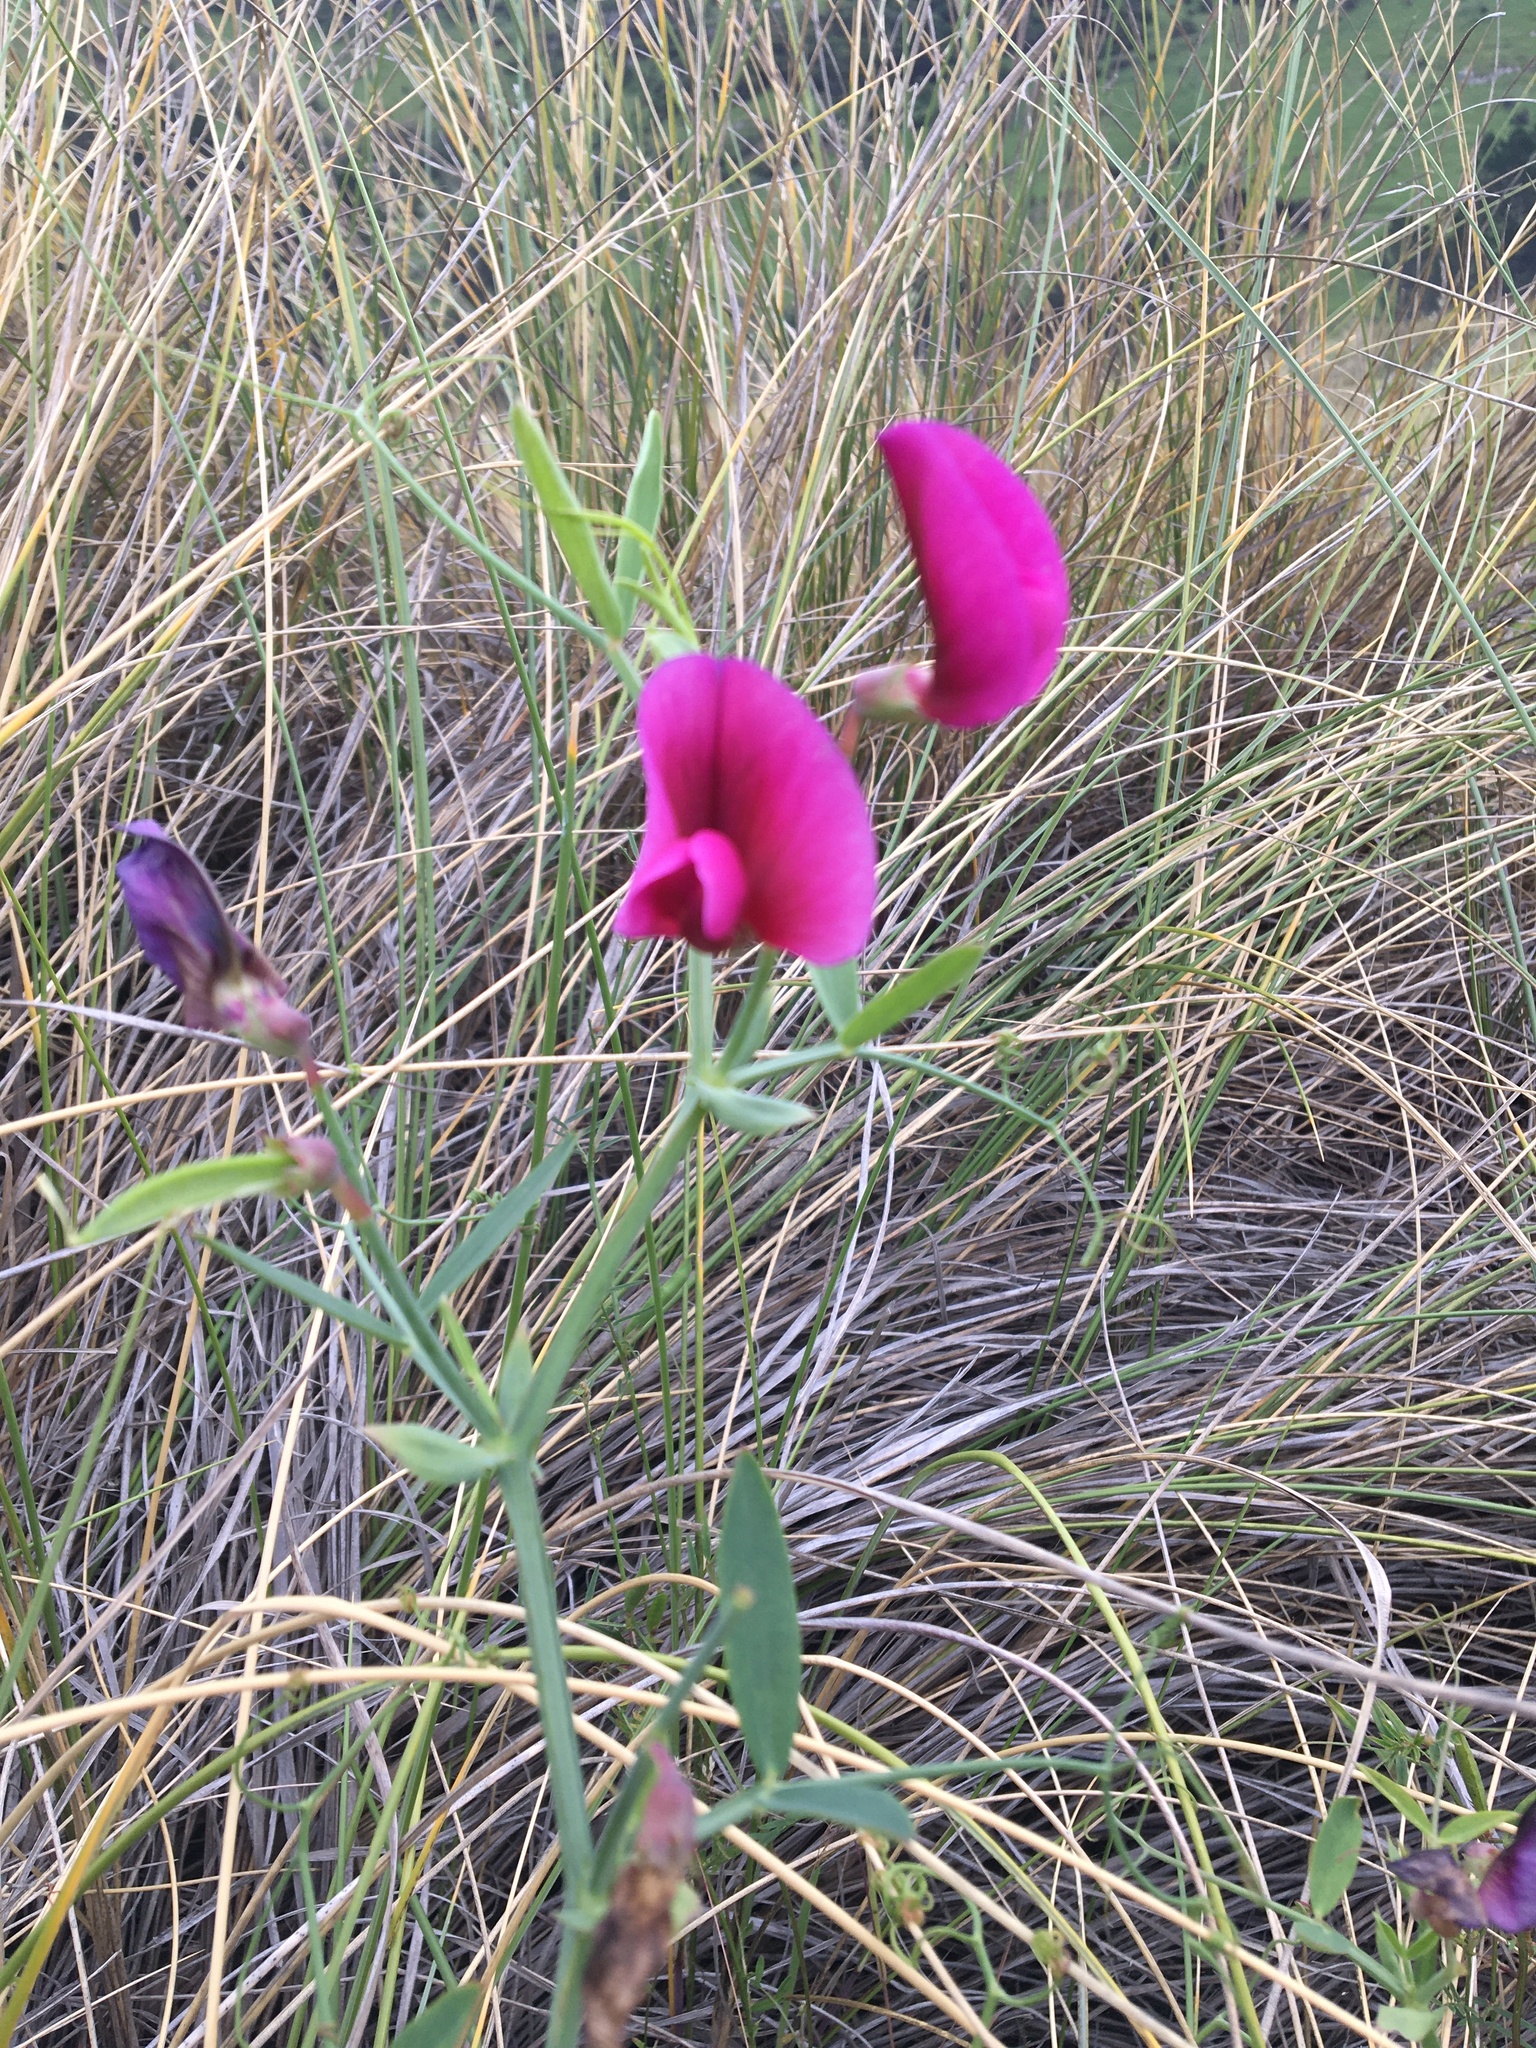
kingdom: Plantae
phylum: Tracheophyta
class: Magnoliopsida
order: Fabales
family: Fabaceae
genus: Lathyrus
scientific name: Lathyrus tingitanus
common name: Tangier pea
